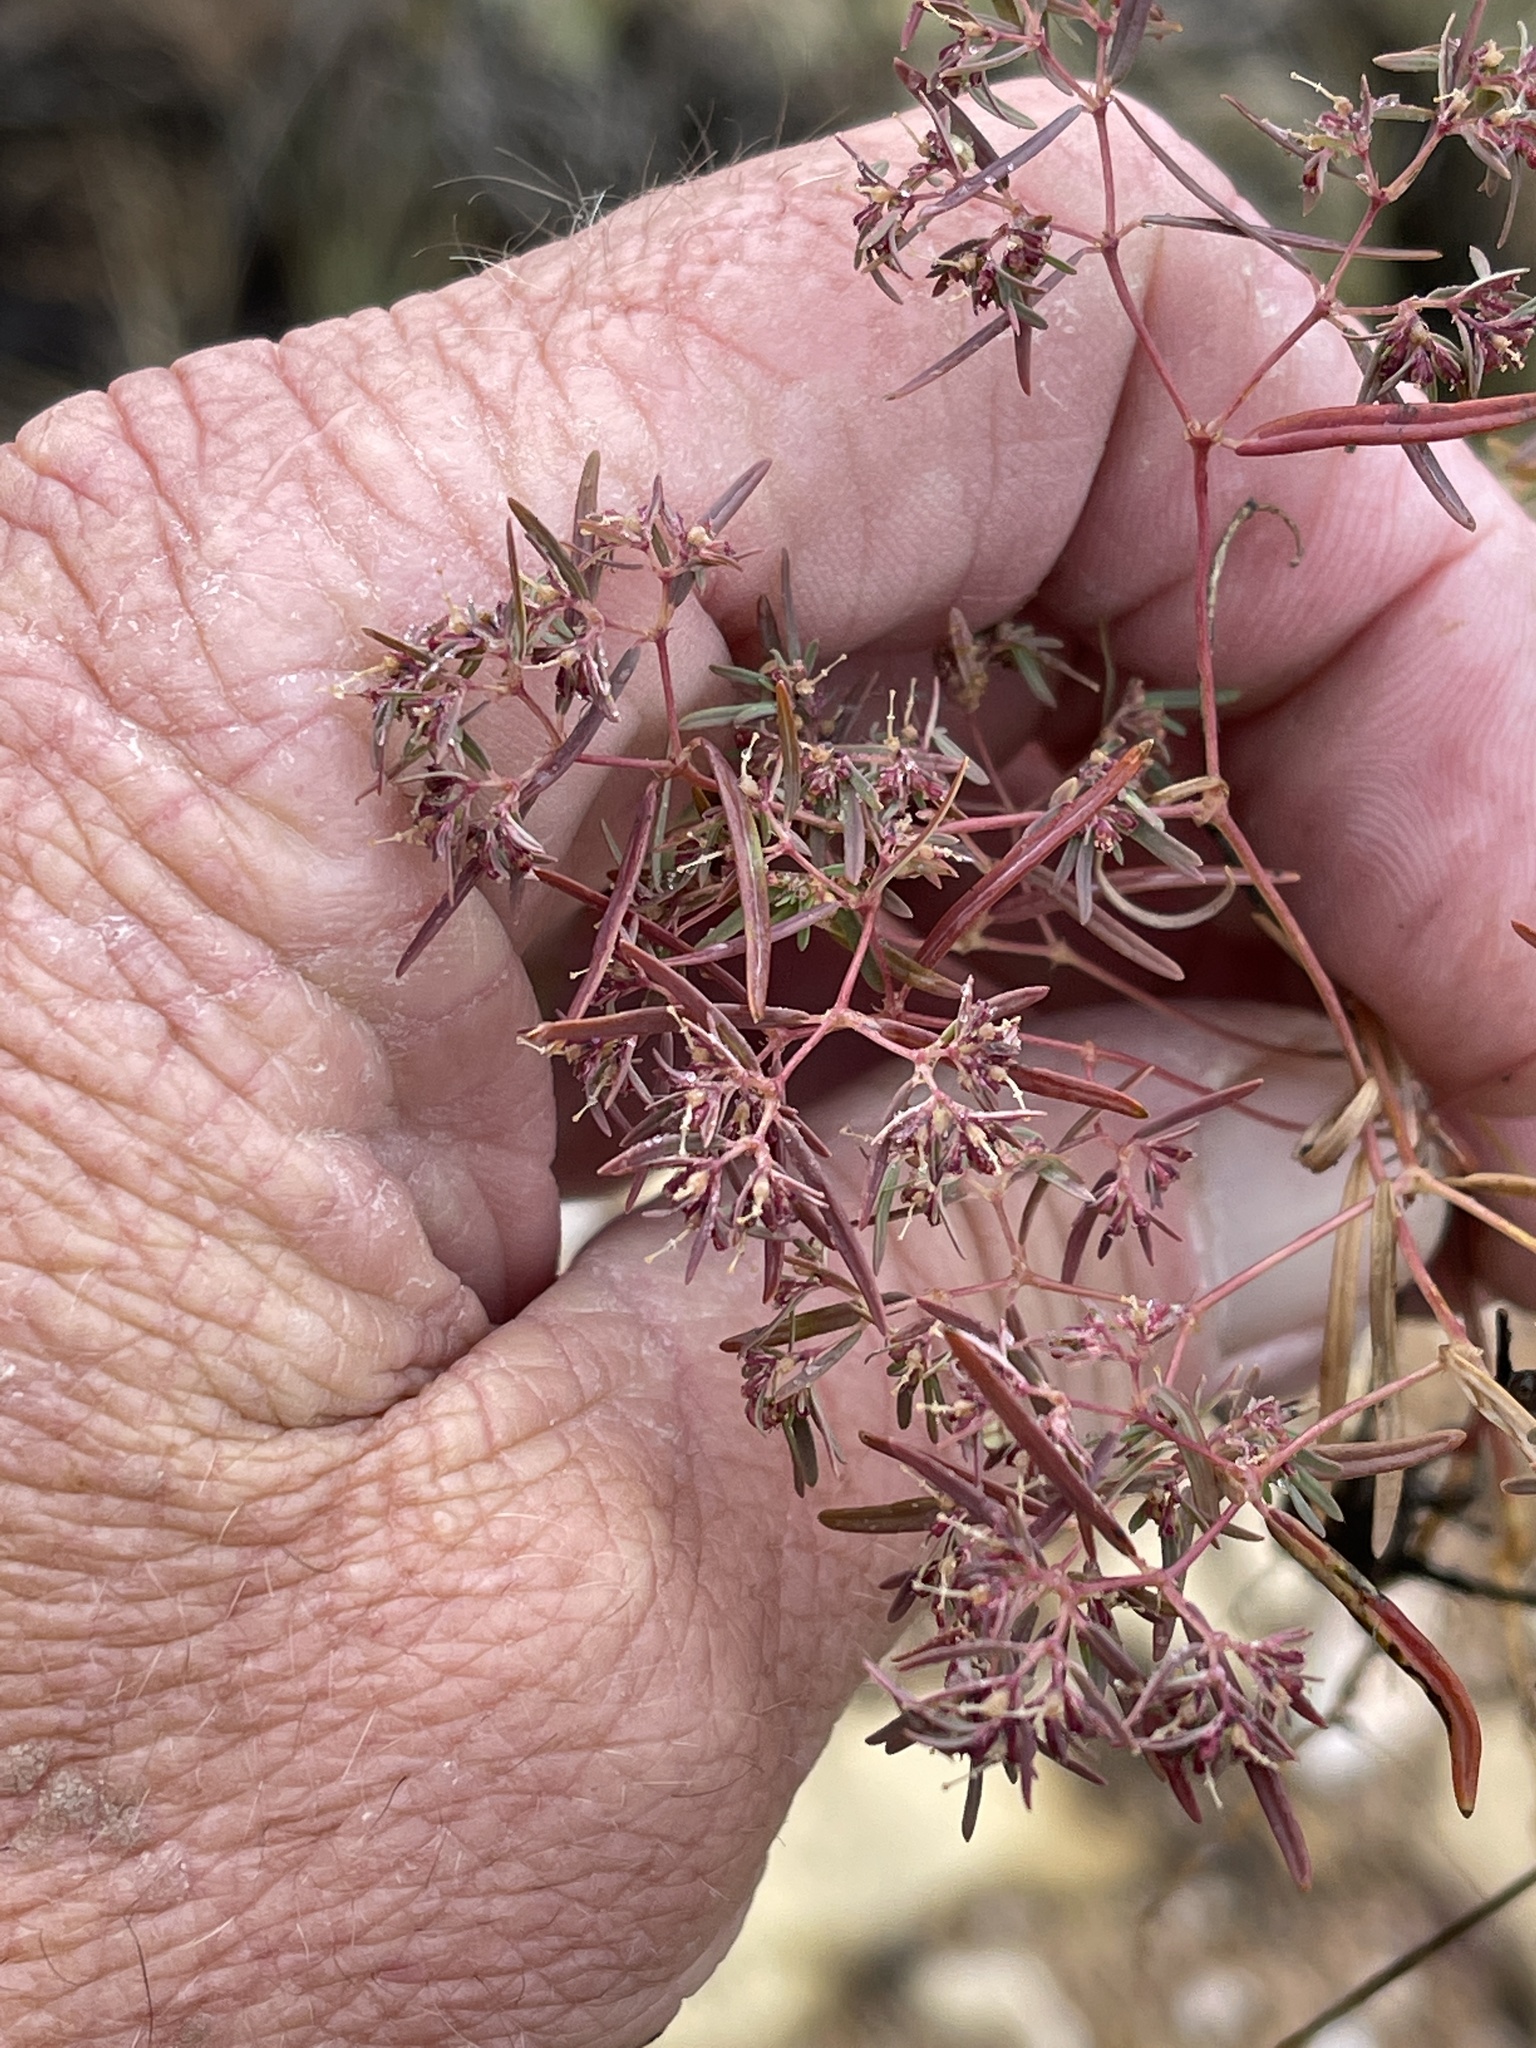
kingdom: Plantae
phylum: Tracheophyta
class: Magnoliopsida
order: Malpighiales
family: Euphorbiaceae
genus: Euphorbia
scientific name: Euphorbia revoluta
